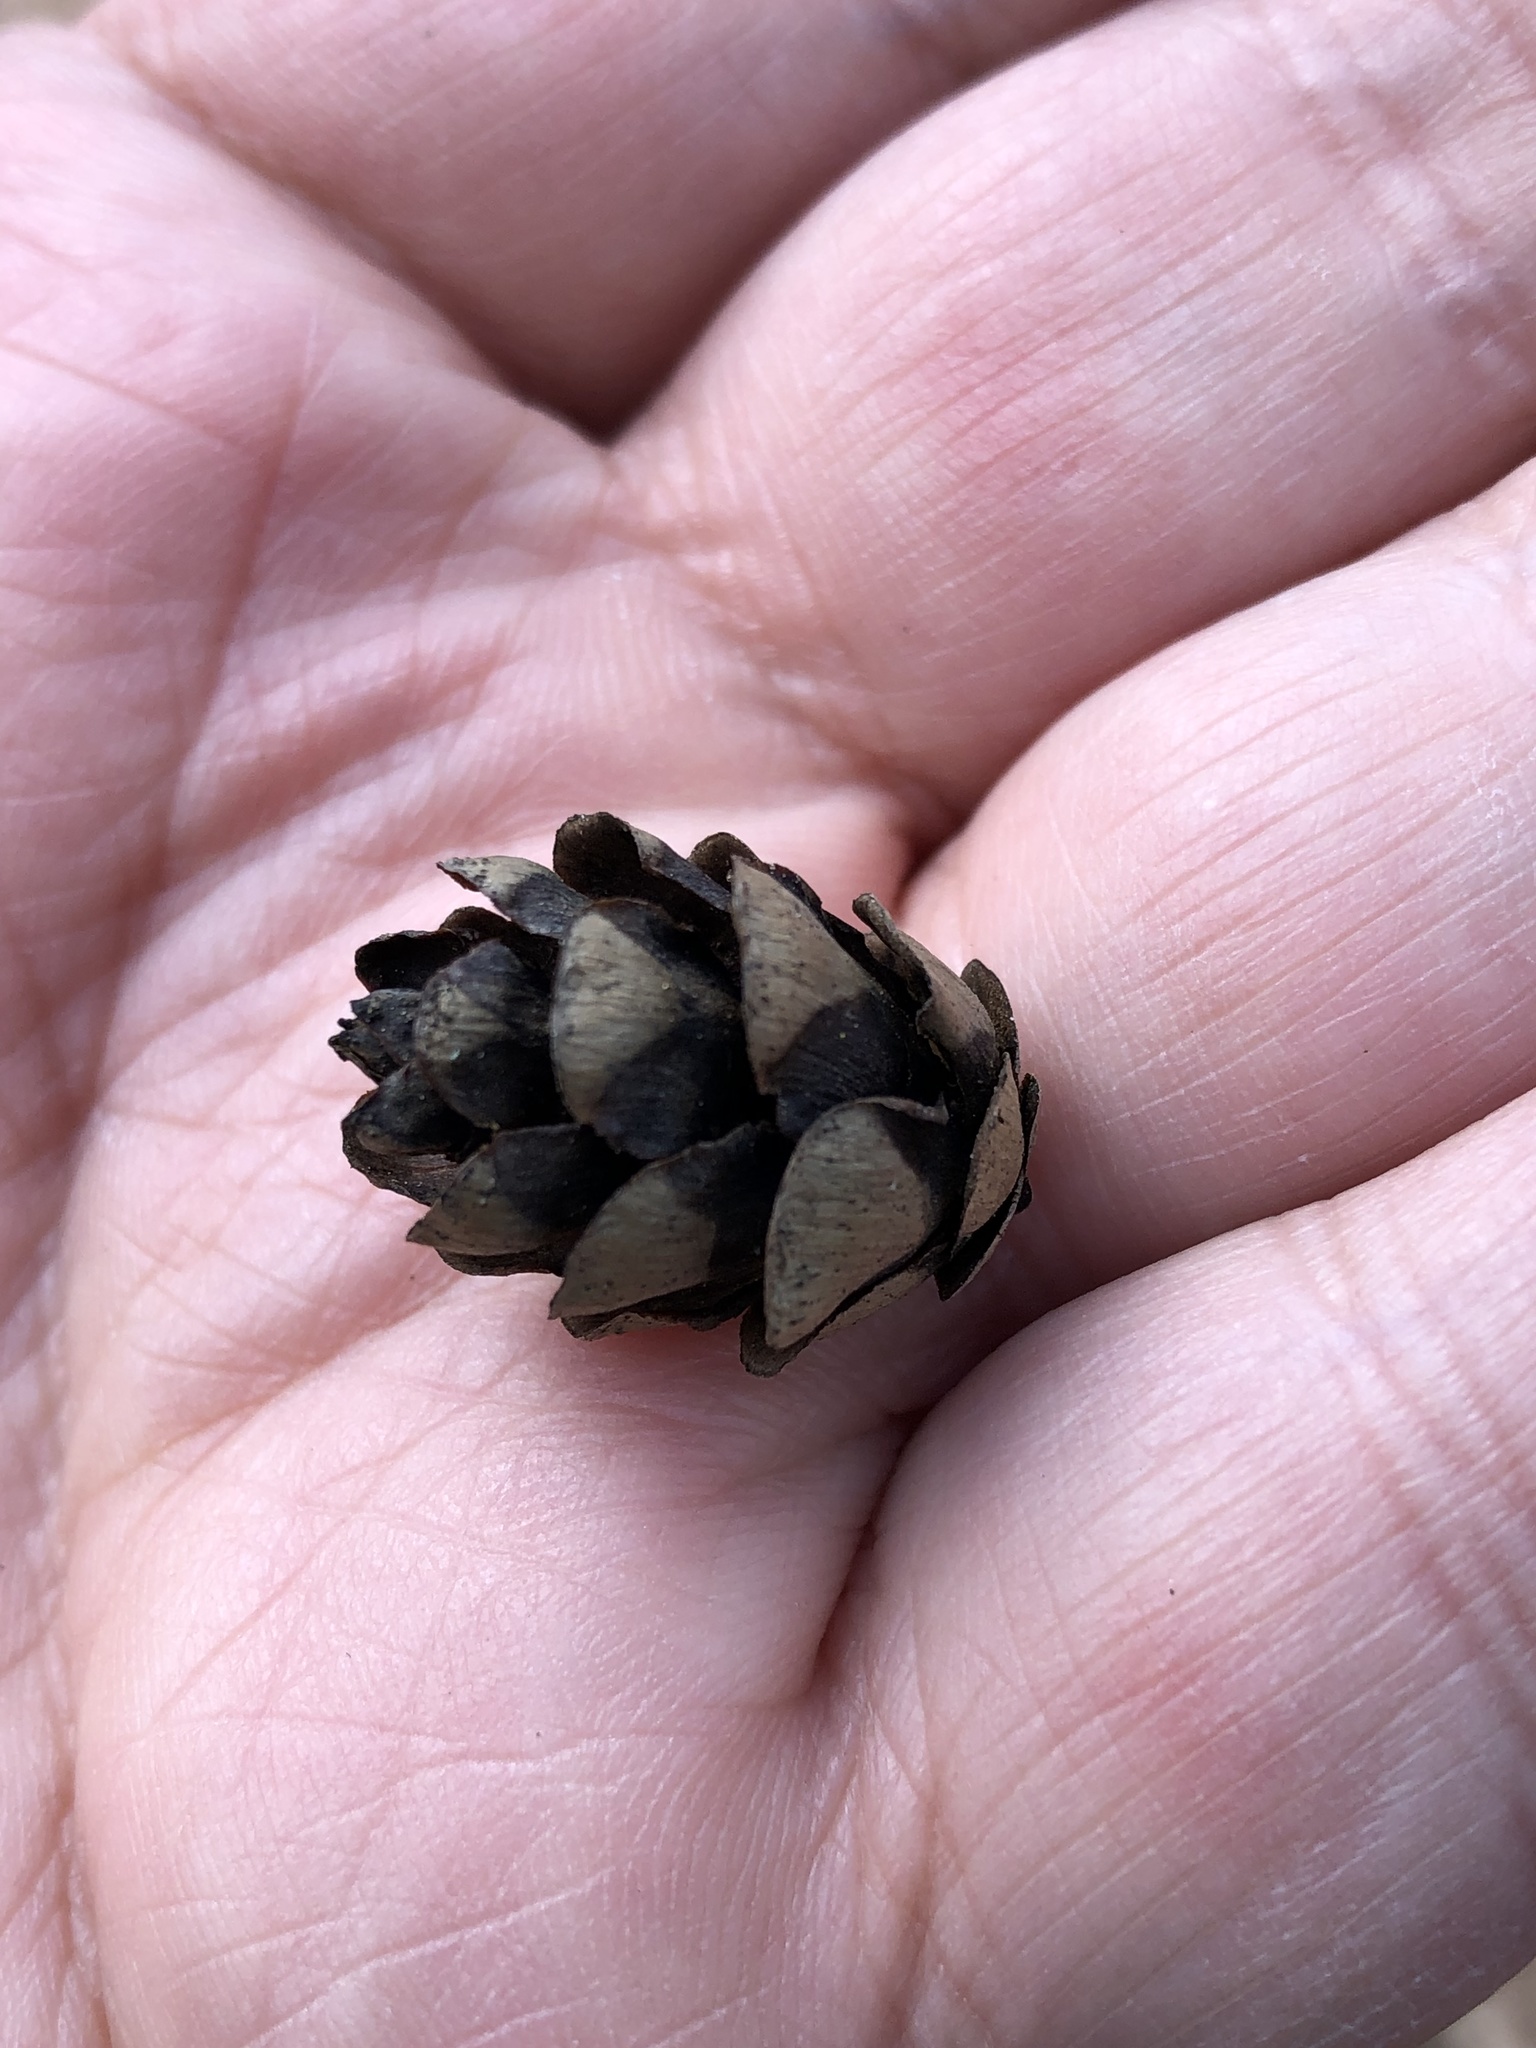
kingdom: Plantae
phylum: Tracheophyta
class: Pinopsida
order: Pinales
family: Pinaceae
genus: Tsuga
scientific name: Tsuga canadensis
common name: Eastern hemlock
